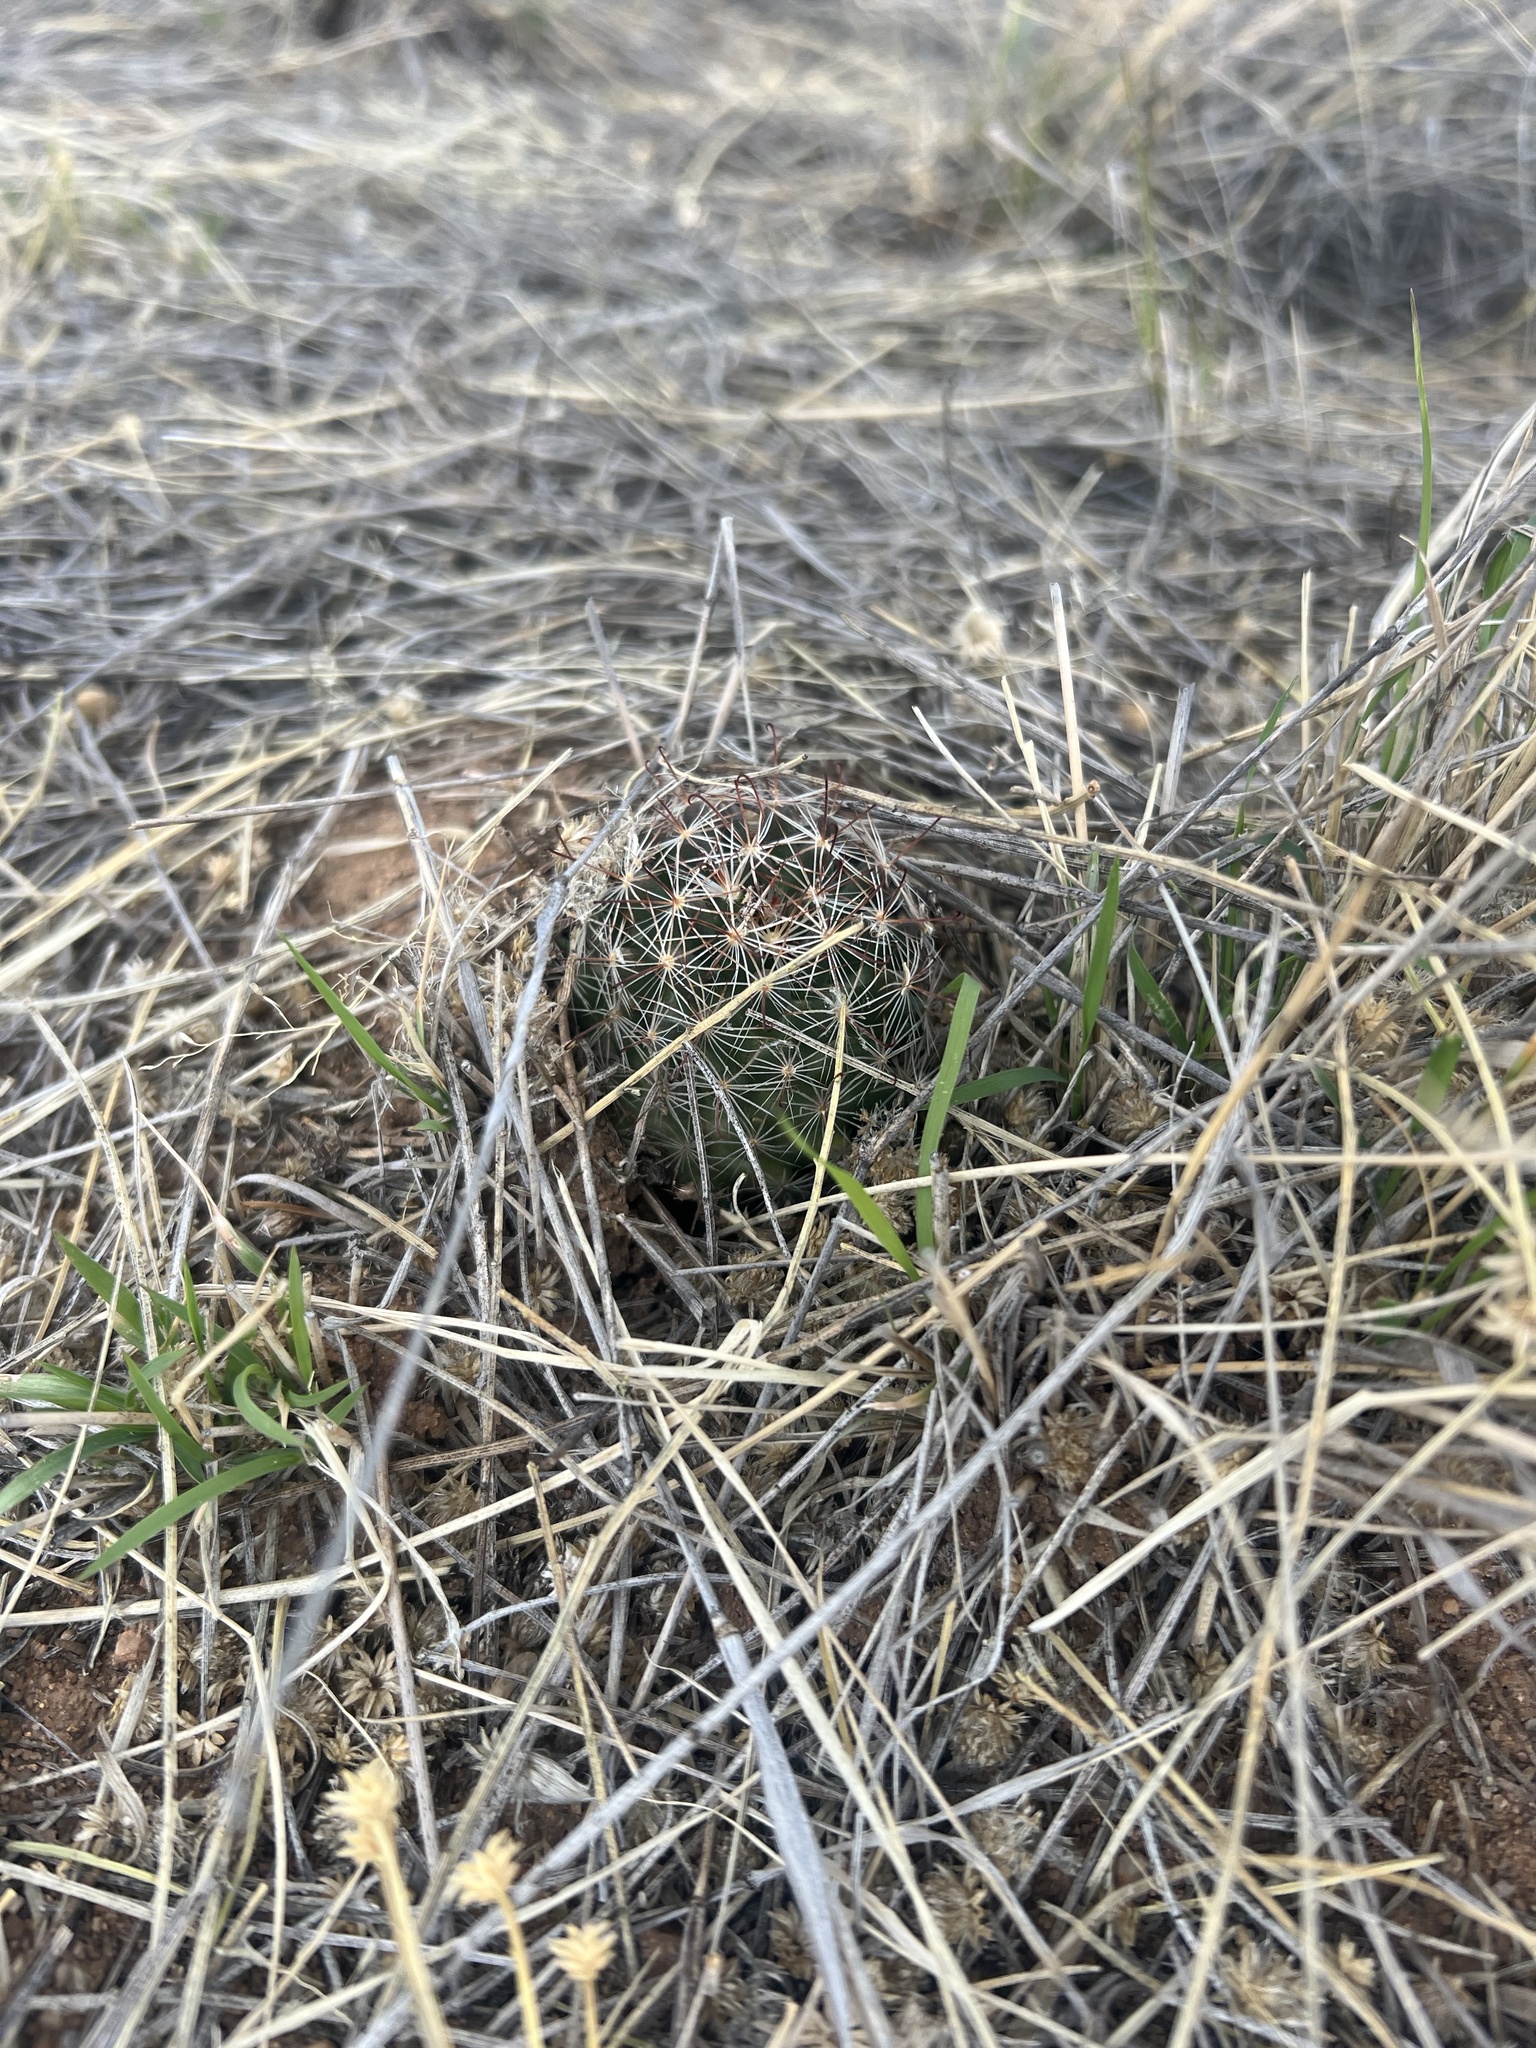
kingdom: Plantae
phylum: Tracheophyta
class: Magnoliopsida
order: Caryophyllales
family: Cactaceae
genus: Cochemiea
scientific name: Cochemiea wrightii
